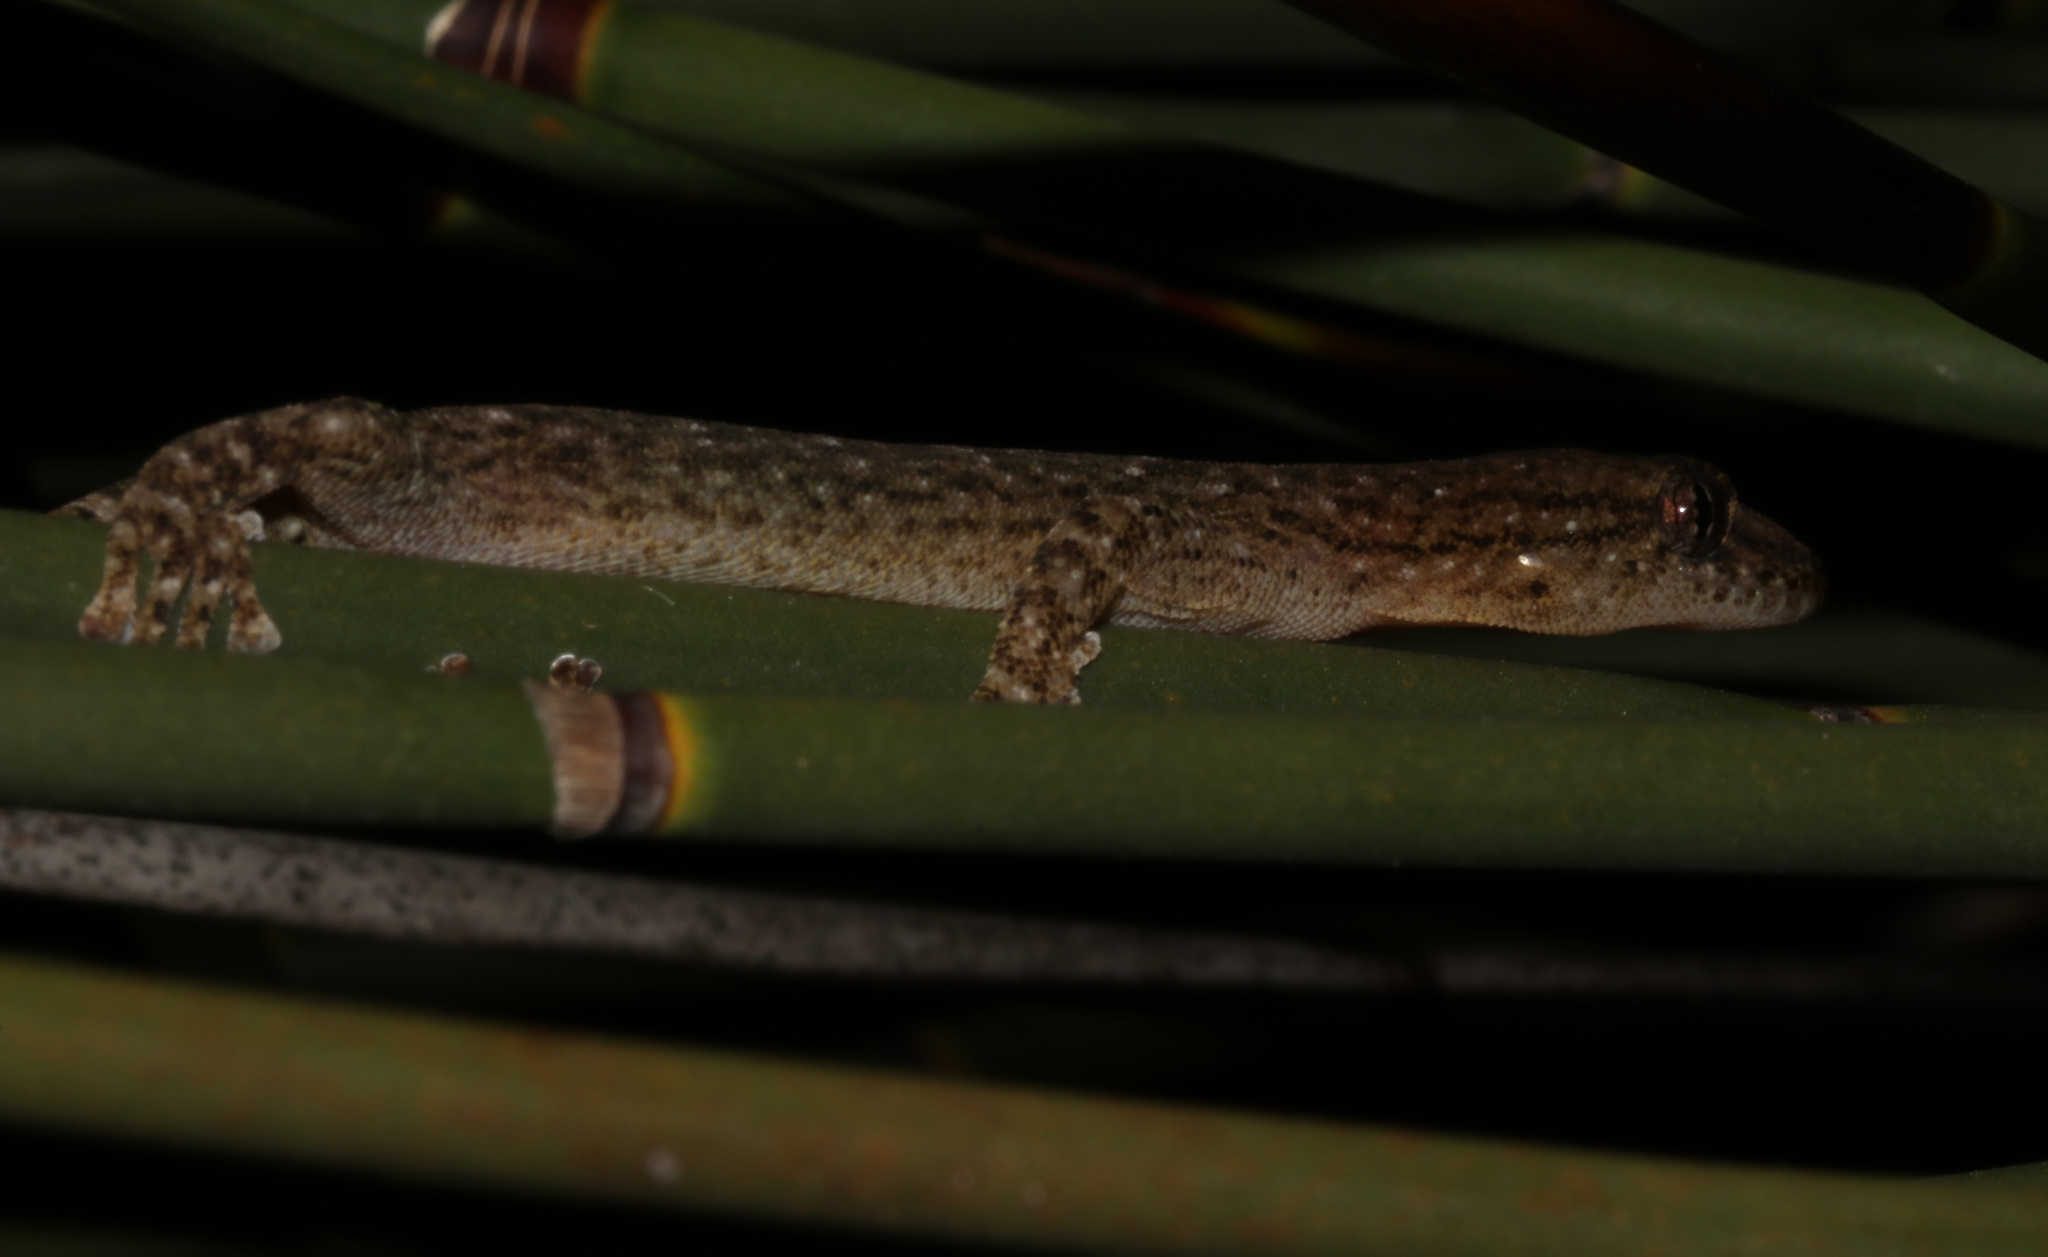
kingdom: Animalia
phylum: Chordata
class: Squamata
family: Gekkonidae
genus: Afrogecko
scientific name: Afrogecko porphyreus
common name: Marbled leaf-toed gecko
